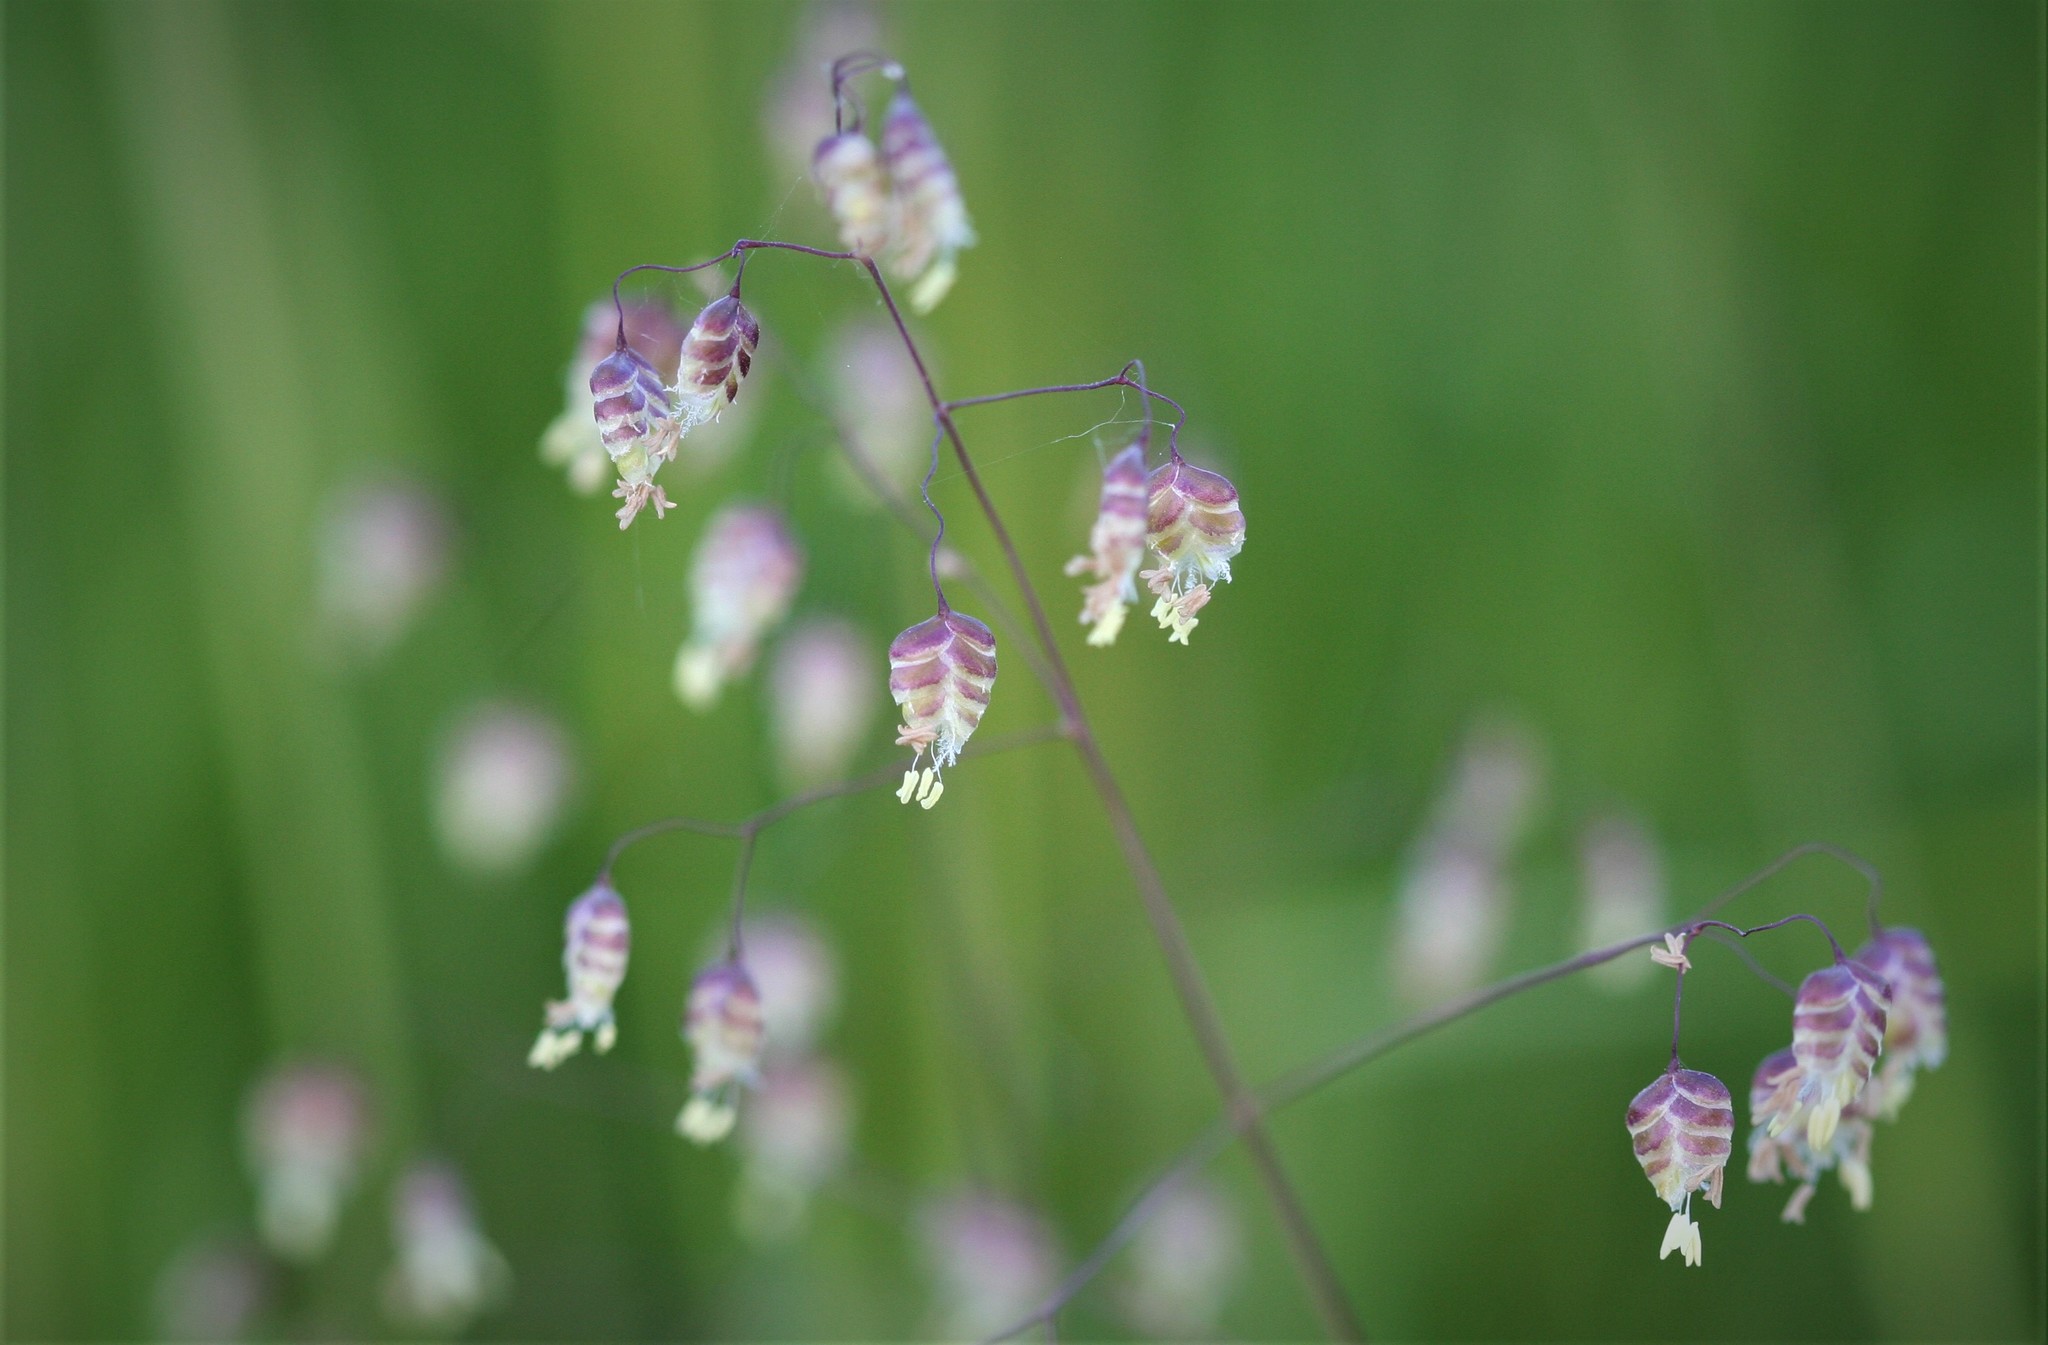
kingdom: Plantae
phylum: Tracheophyta
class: Liliopsida
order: Poales
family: Poaceae
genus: Briza
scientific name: Briza media
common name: Quaking grass
